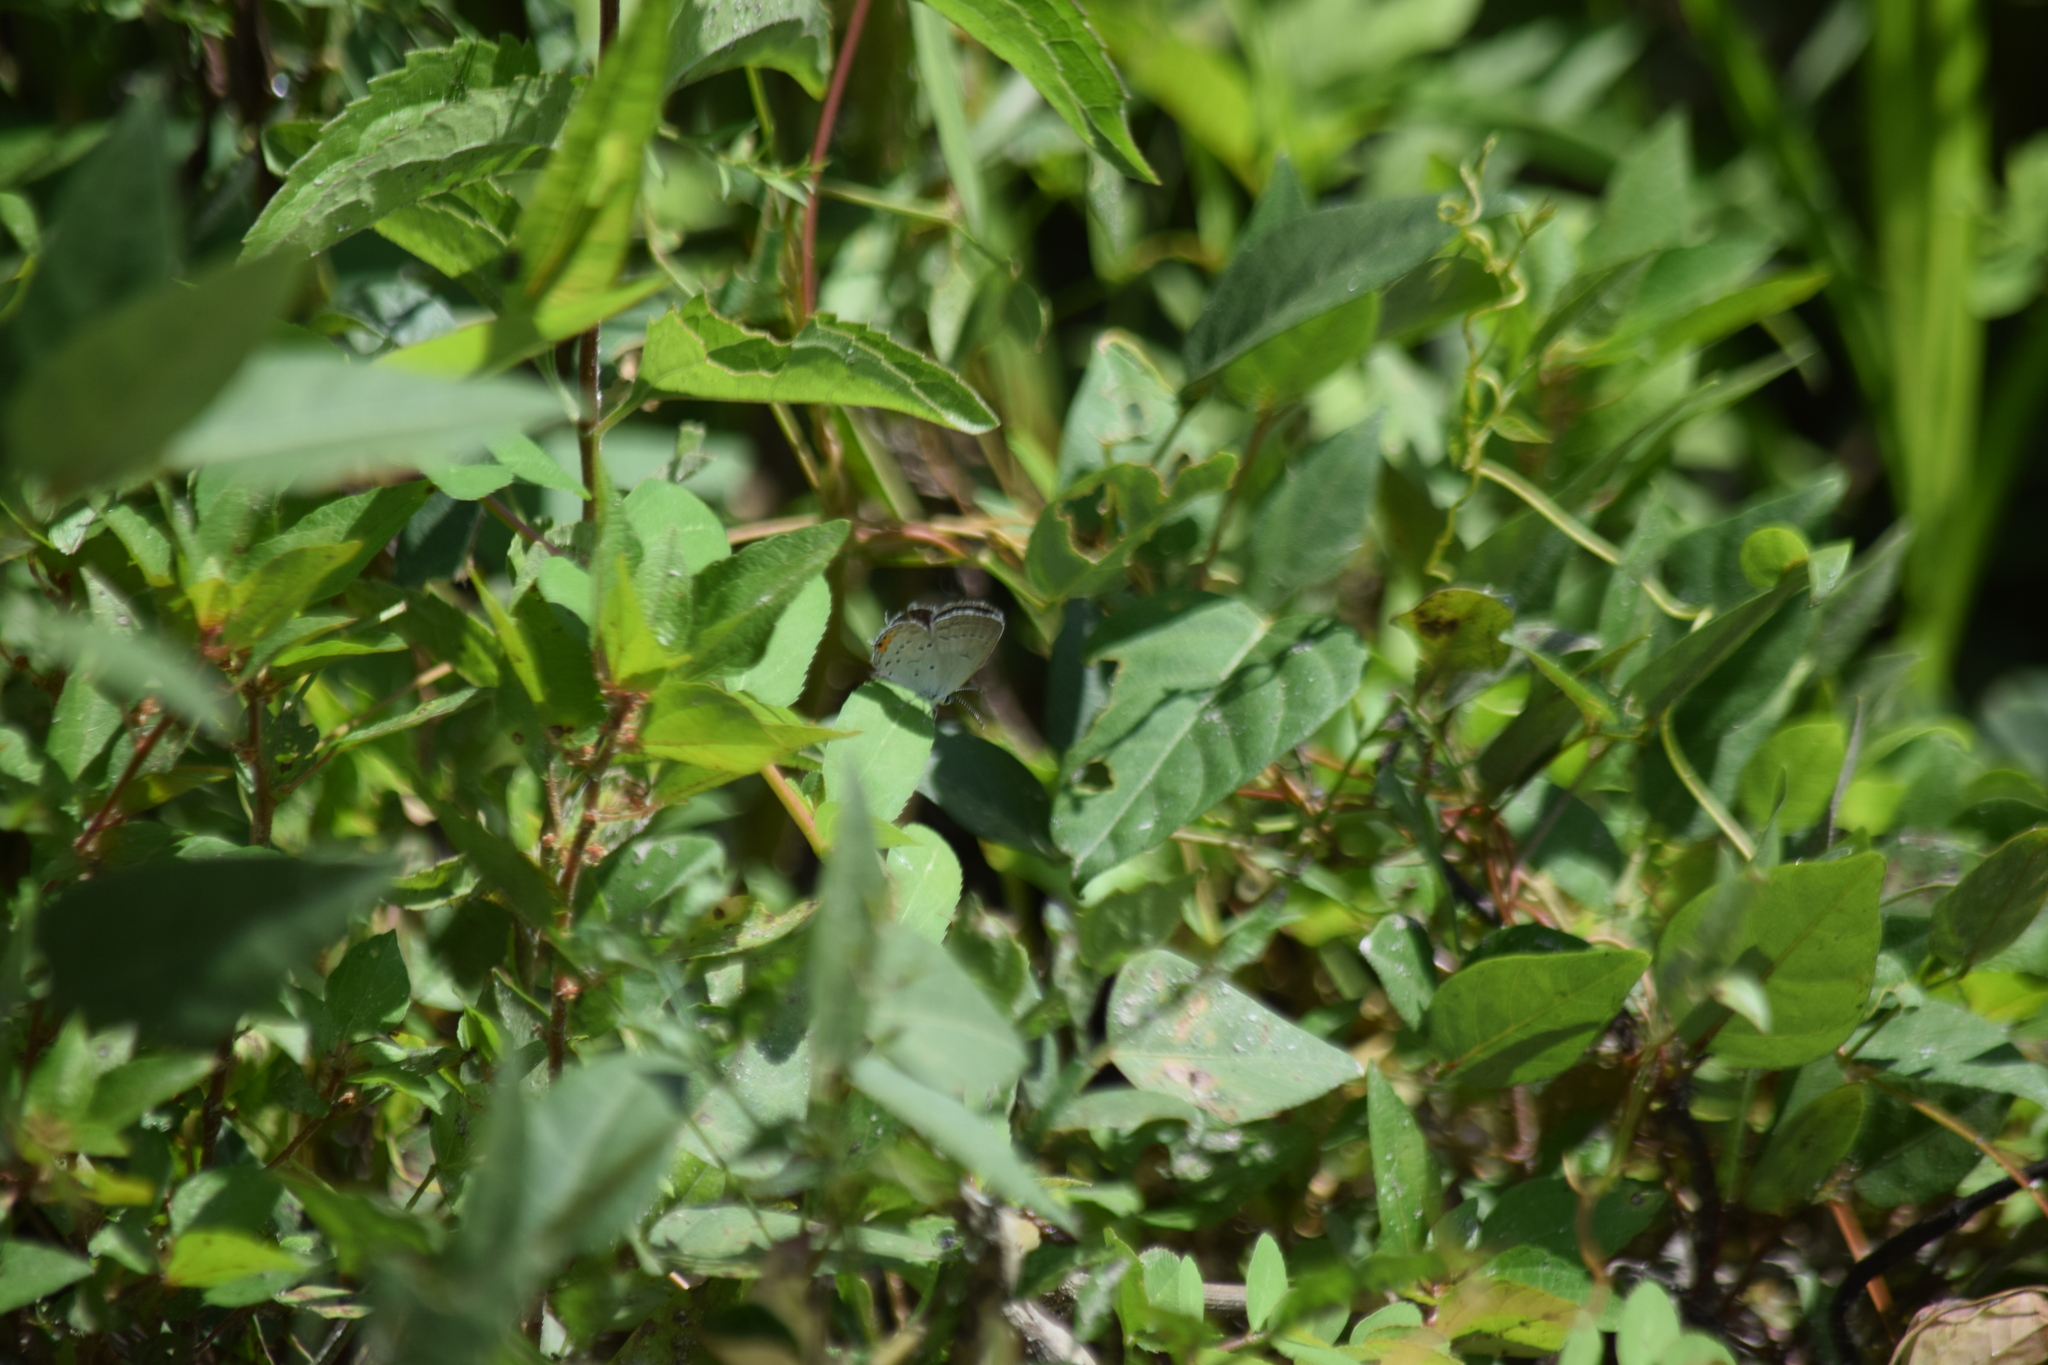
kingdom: Animalia
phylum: Arthropoda
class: Insecta
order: Lepidoptera
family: Lycaenidae
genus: Elkalyce
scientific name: Elkalyce comyntas
